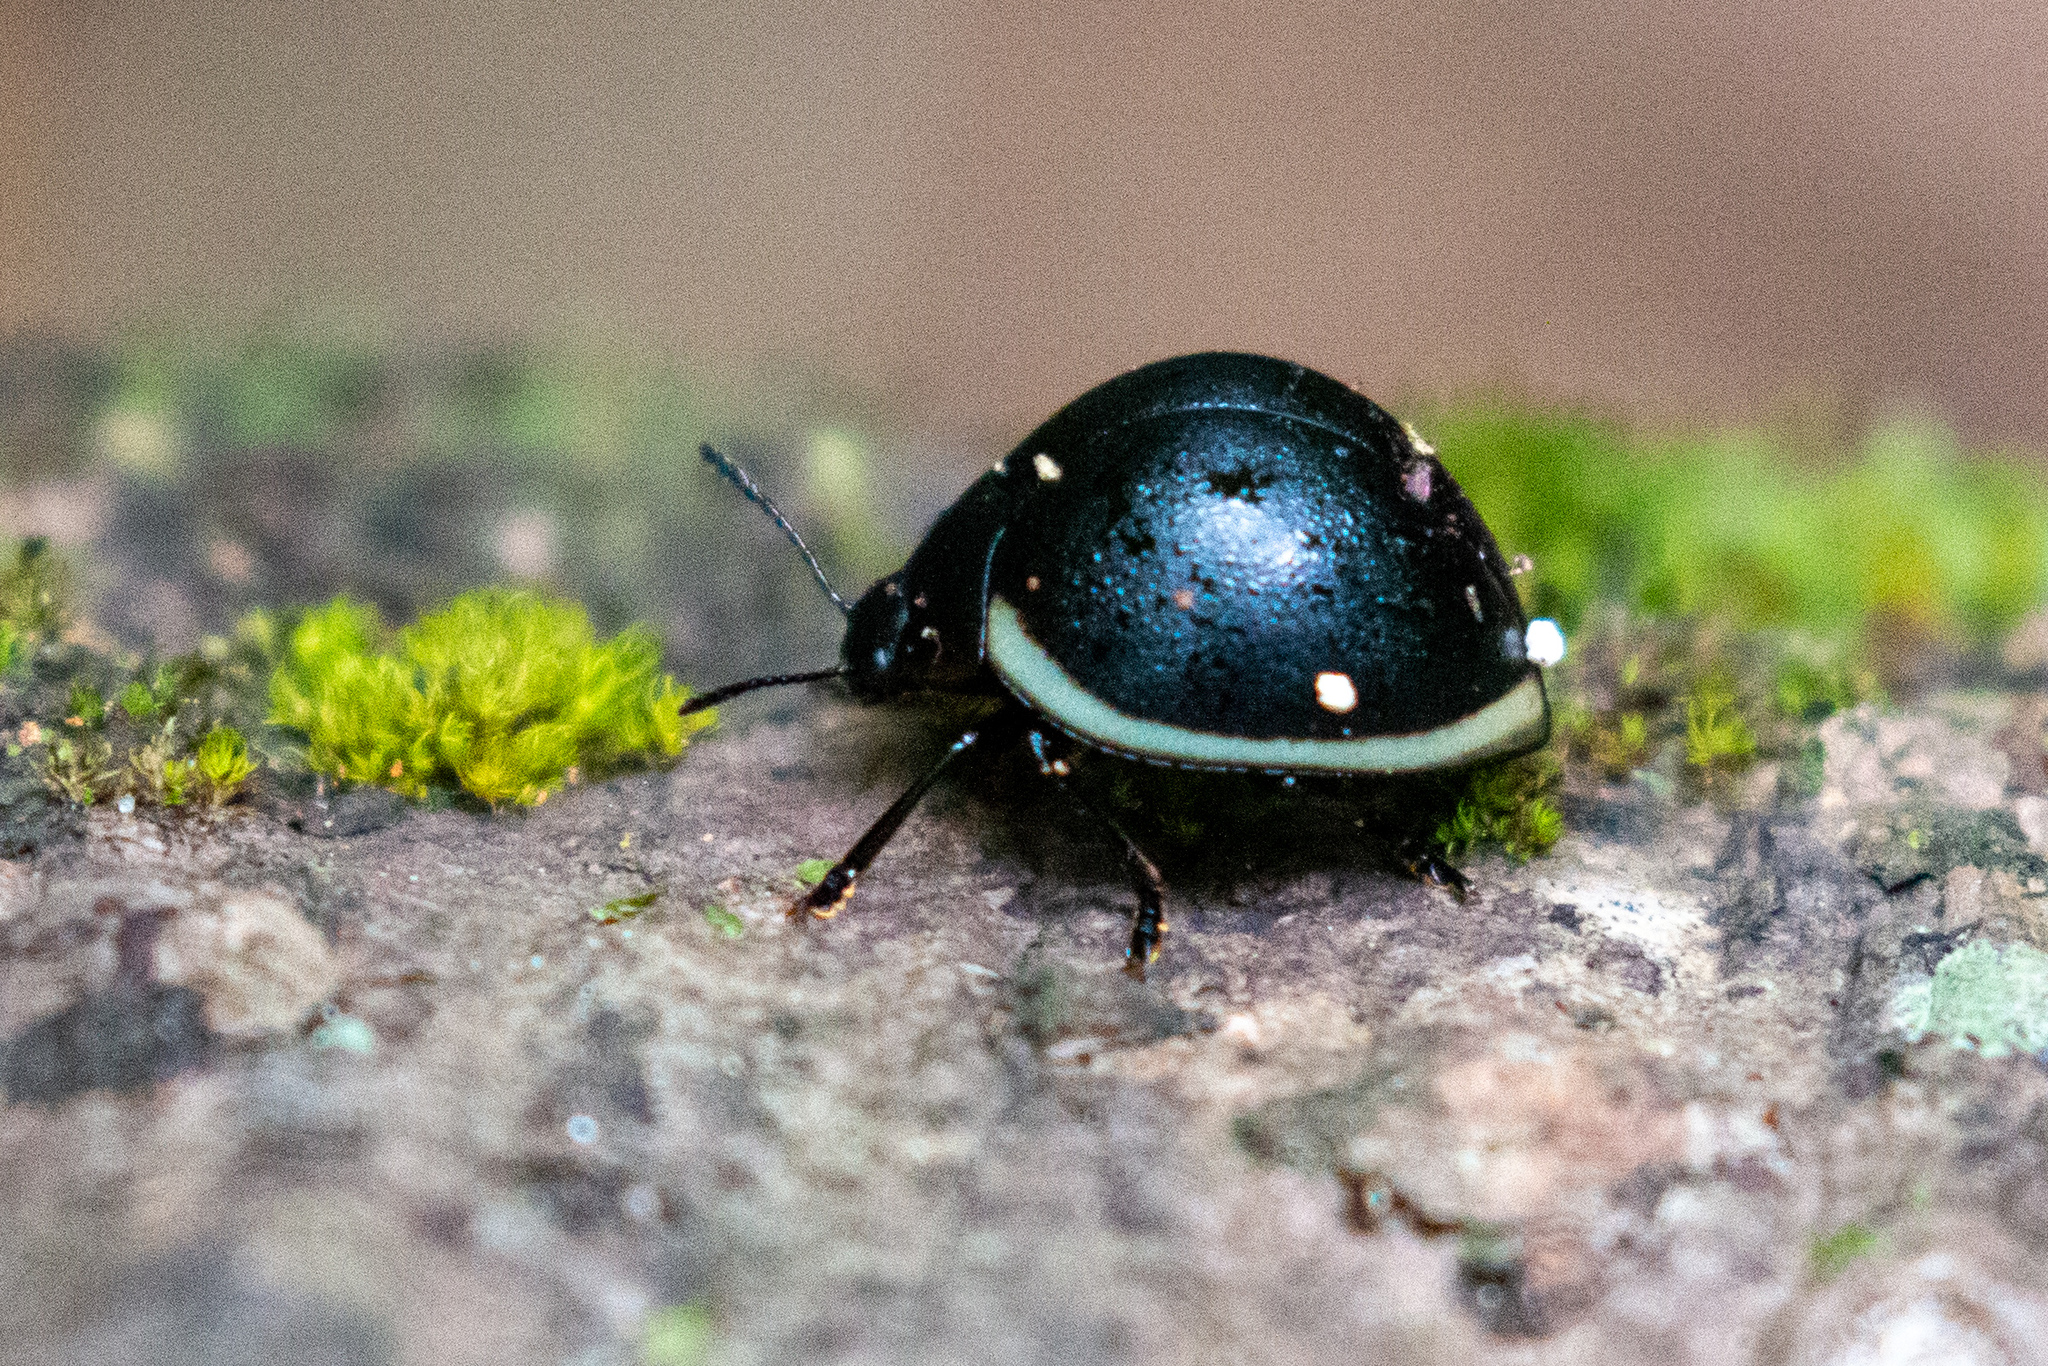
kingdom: Animalia
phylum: Arthropoda
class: Insecta
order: Coleoptera
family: Erotylidae
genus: Aegithus
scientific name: Aegithus
